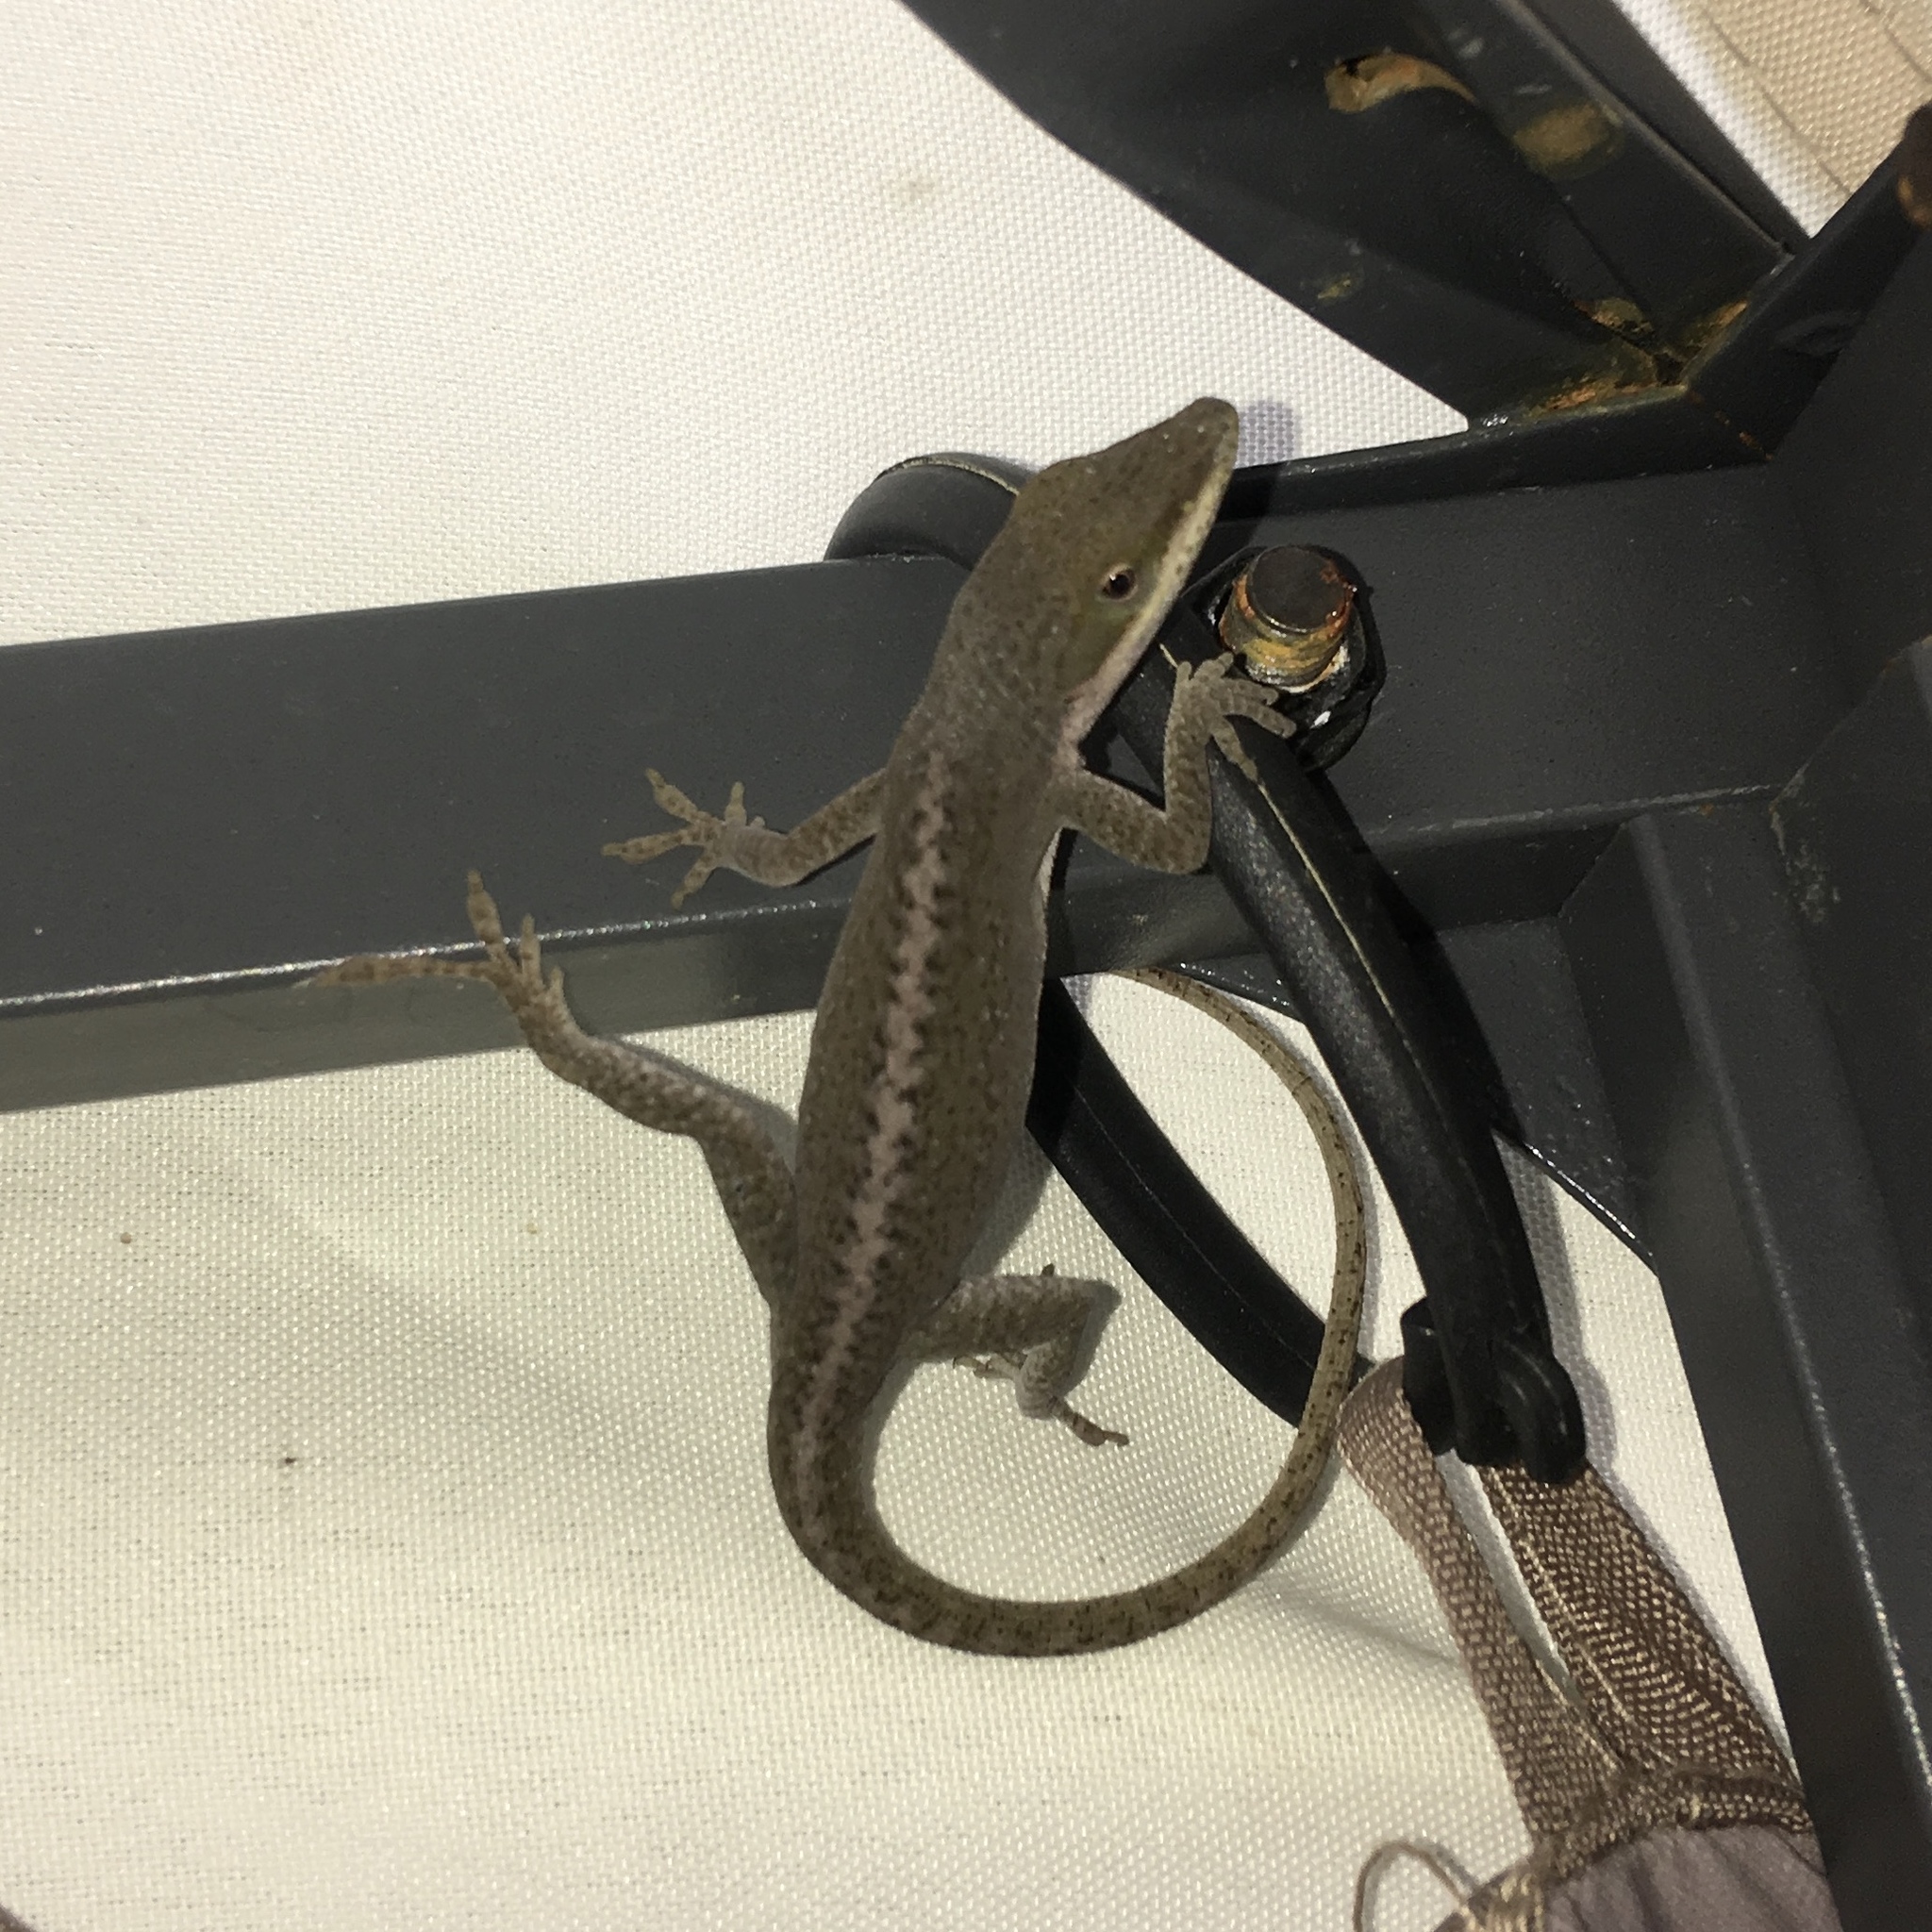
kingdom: Animalia
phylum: Chordata
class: Squamata
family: Dactyloidae
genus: Anolis
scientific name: Anolis carolinensis
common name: Green anole
